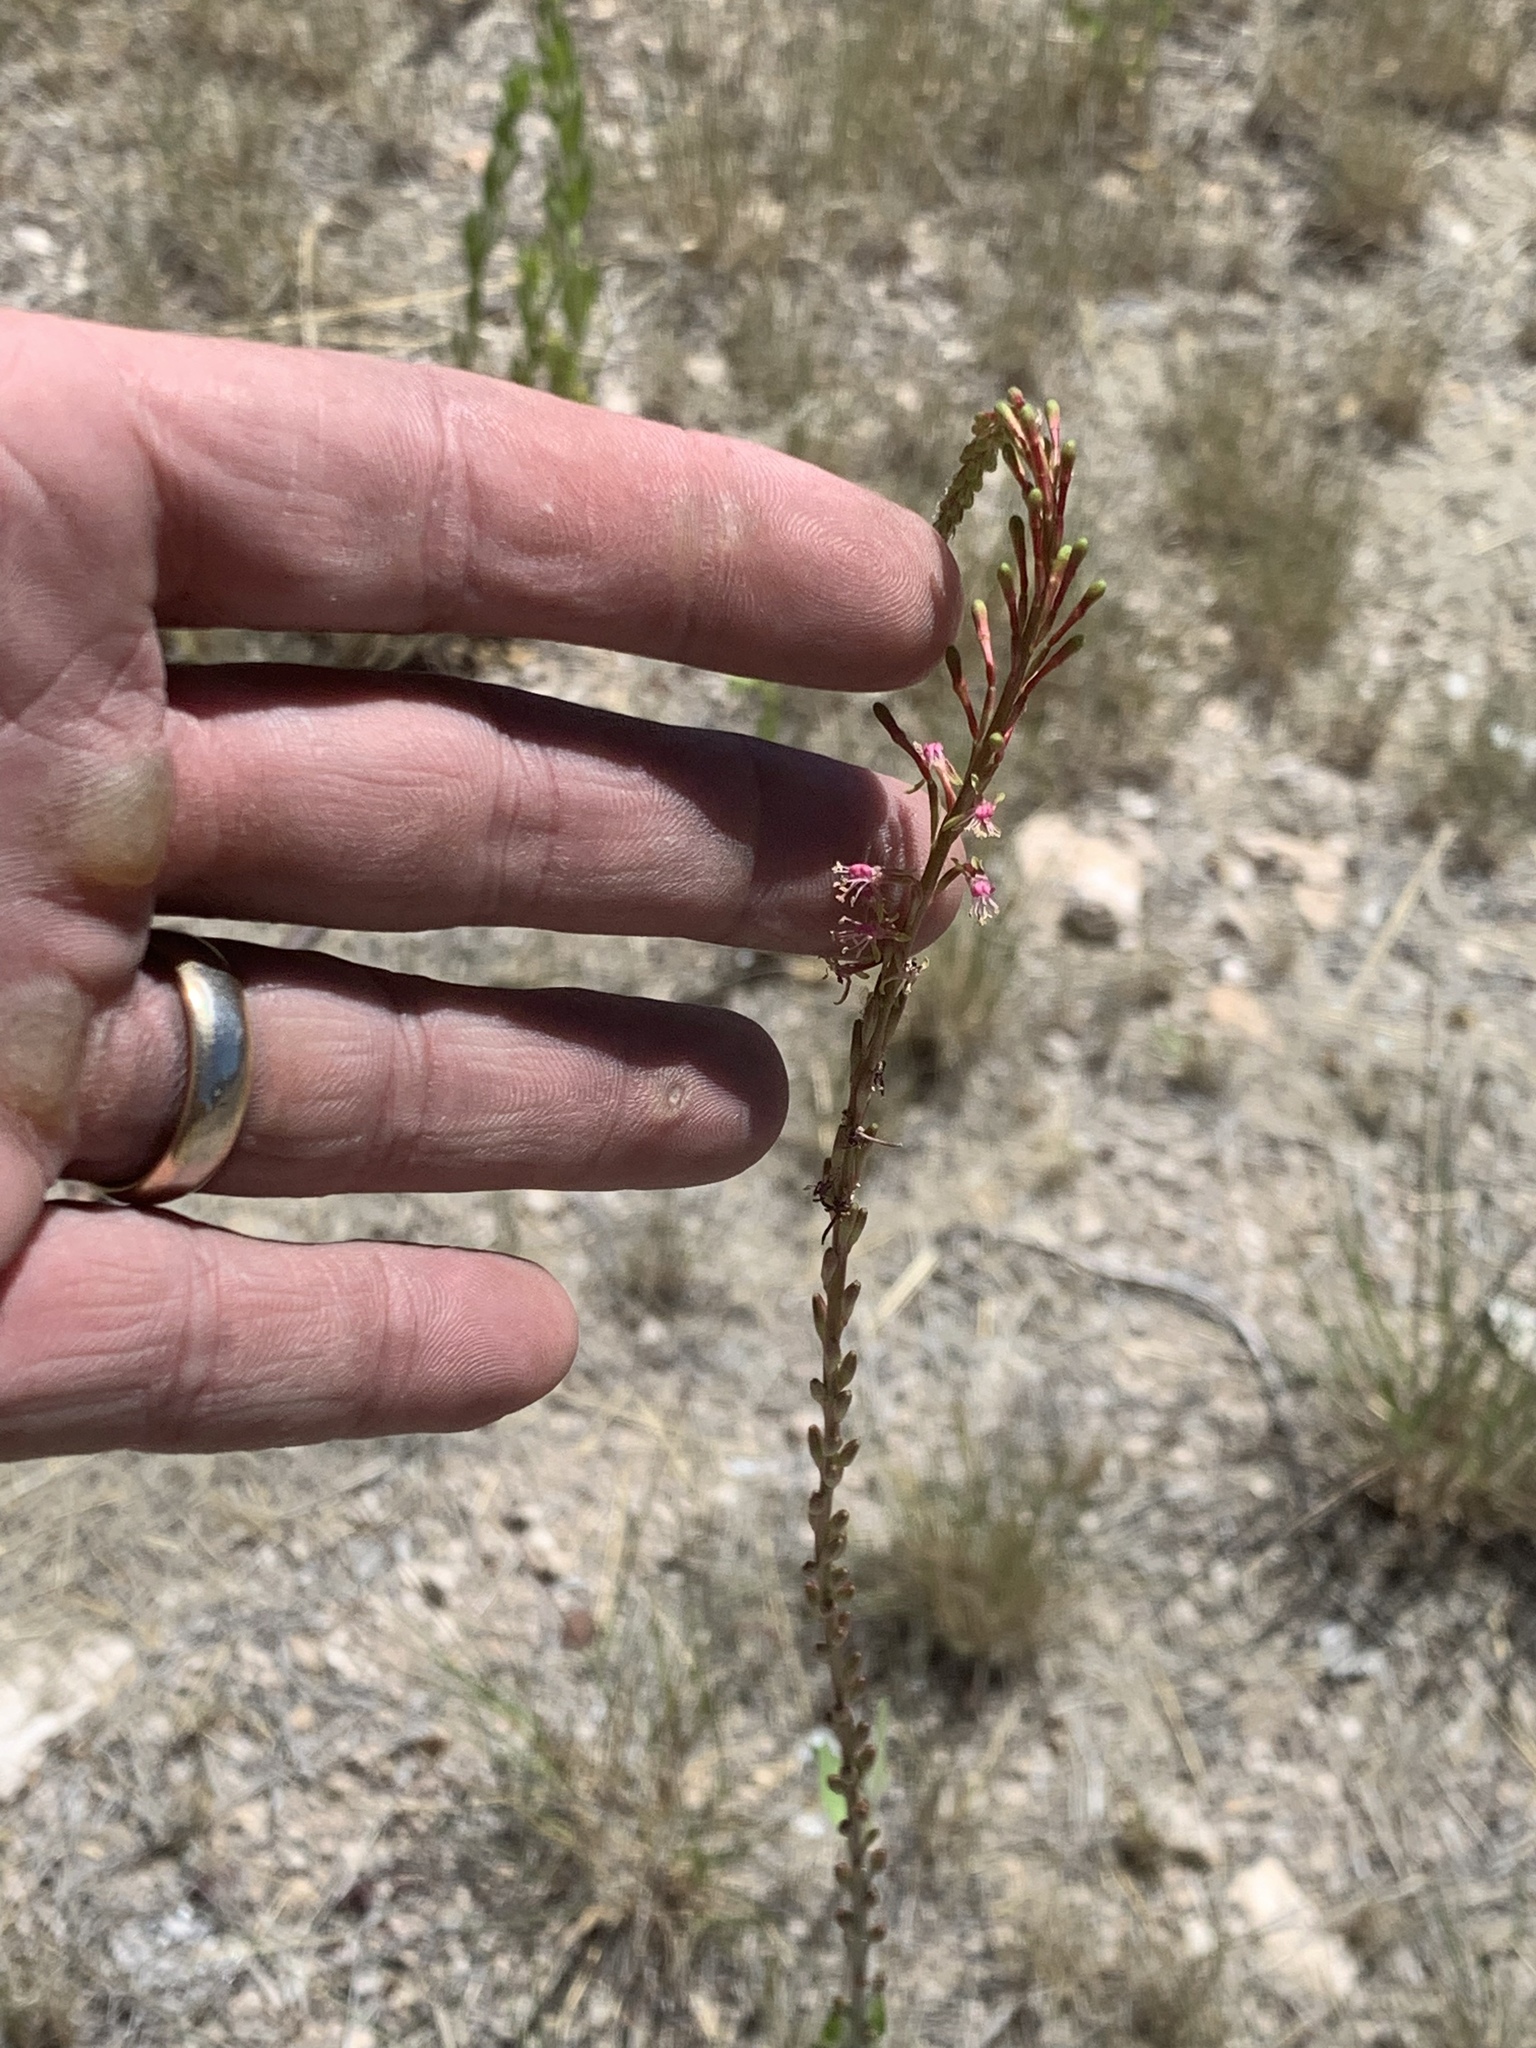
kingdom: Plantae
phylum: Tracheophyta
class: Magnoliopsida
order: Myrtales
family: Onagraceae
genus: Oenothera
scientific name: Oenothera curtiflora
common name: Velvetweed
